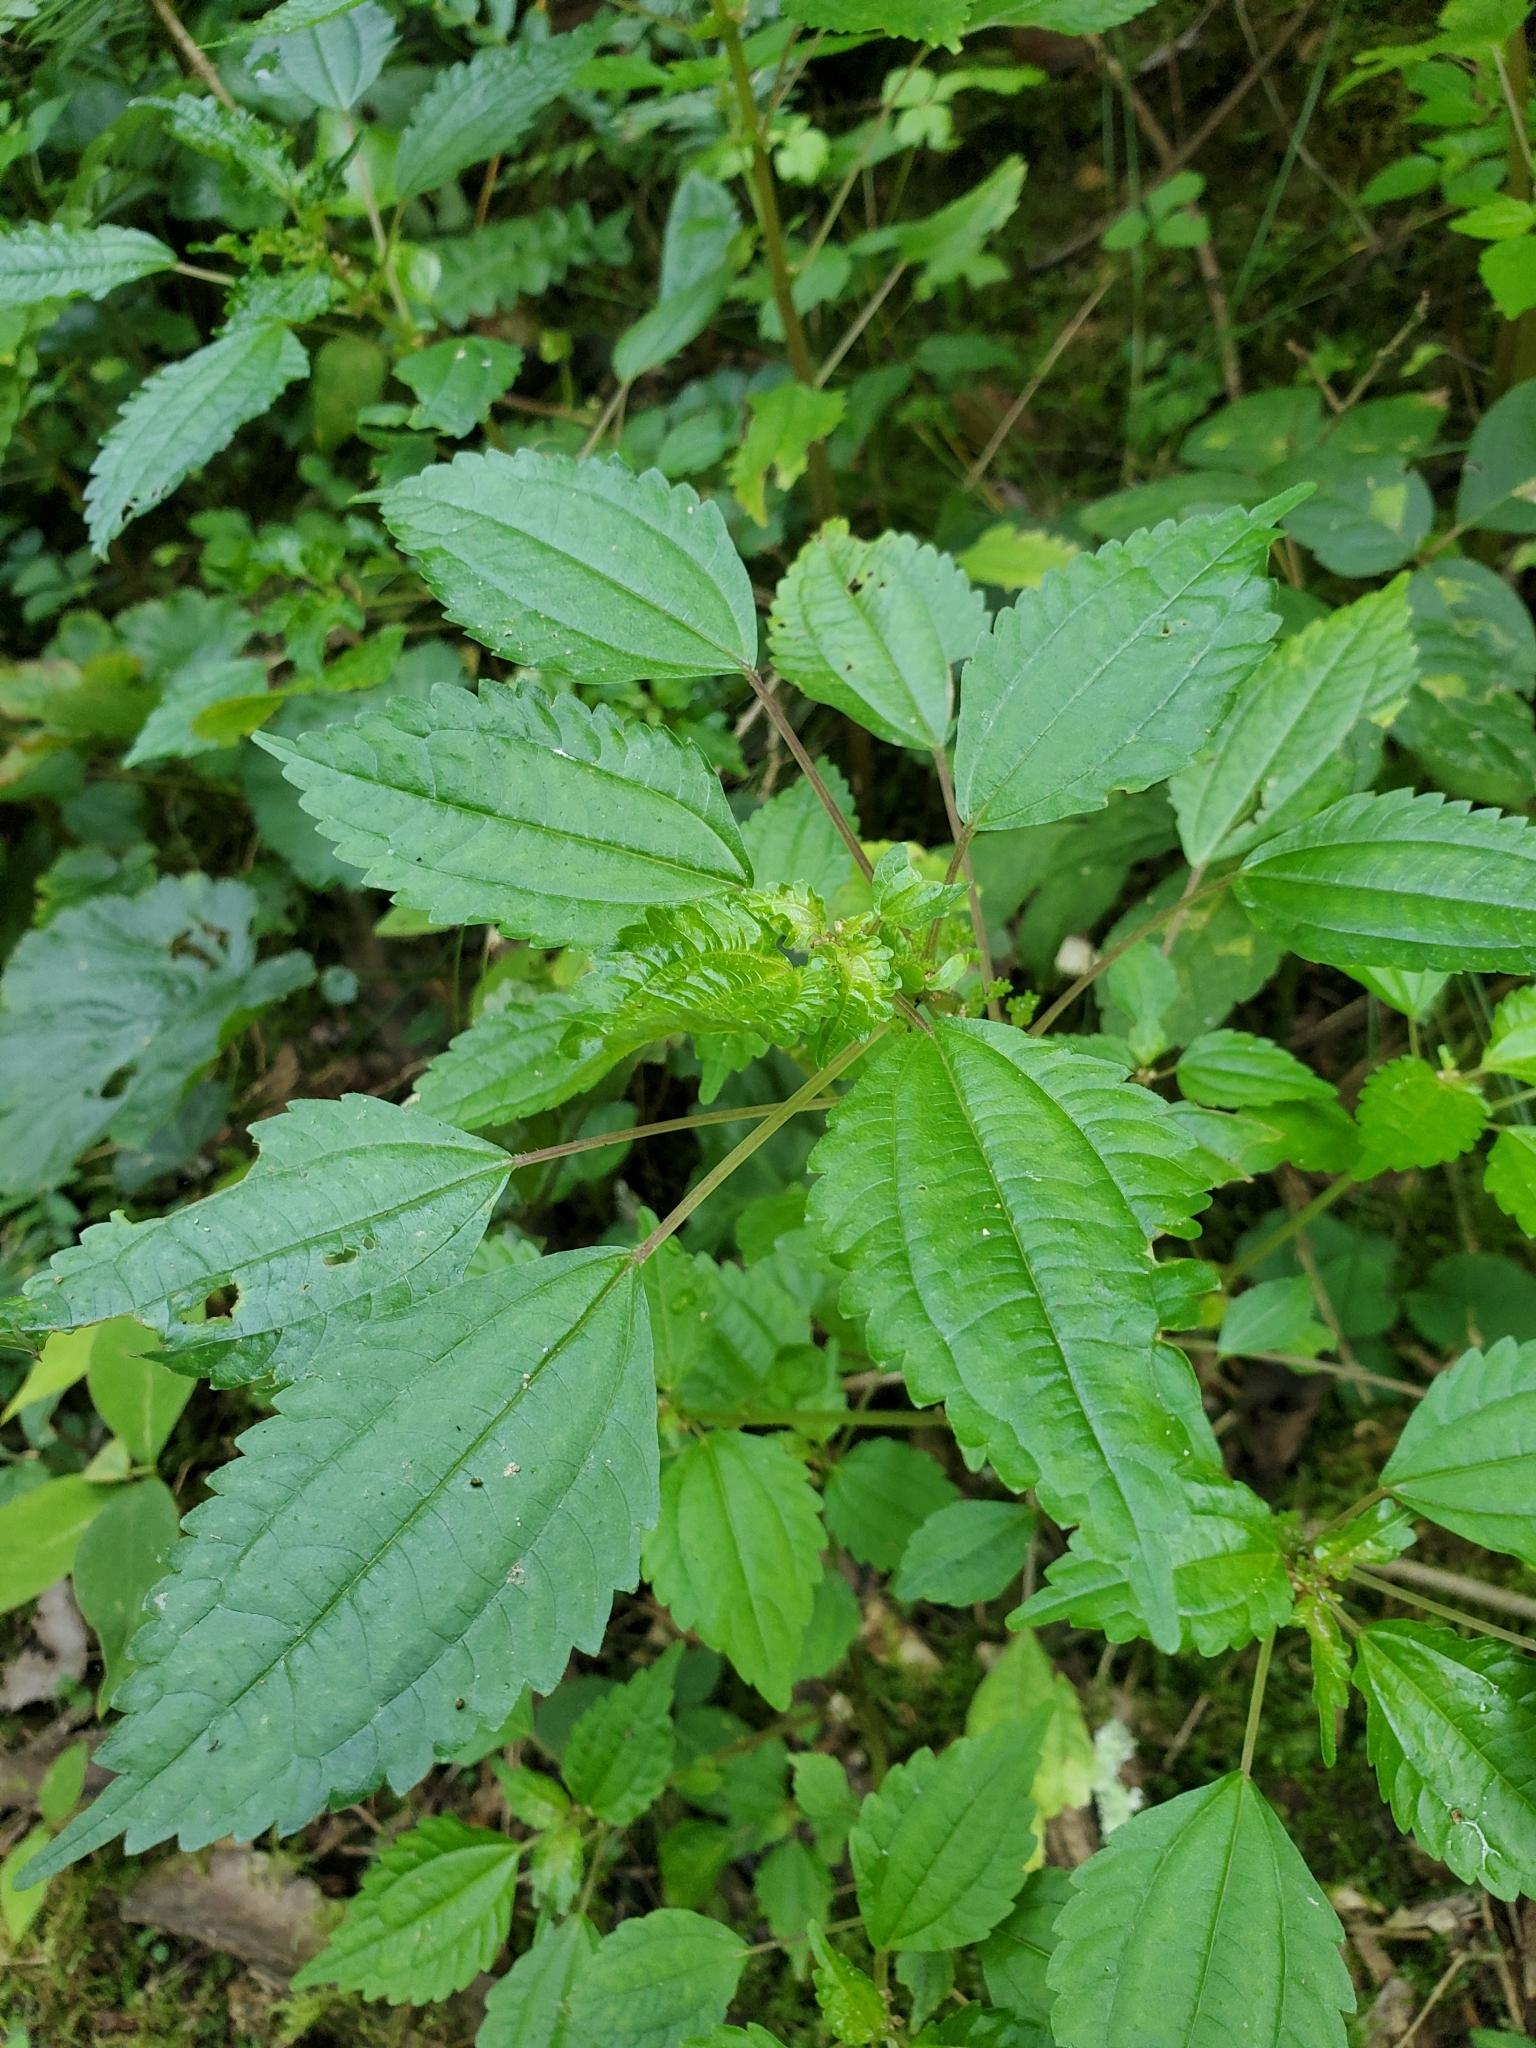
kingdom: Plantae
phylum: Tracheophyta
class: Magnoliopsida
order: Rosales
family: Urticaceae
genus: Pilea
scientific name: Pilea pumila
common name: Clearweed
